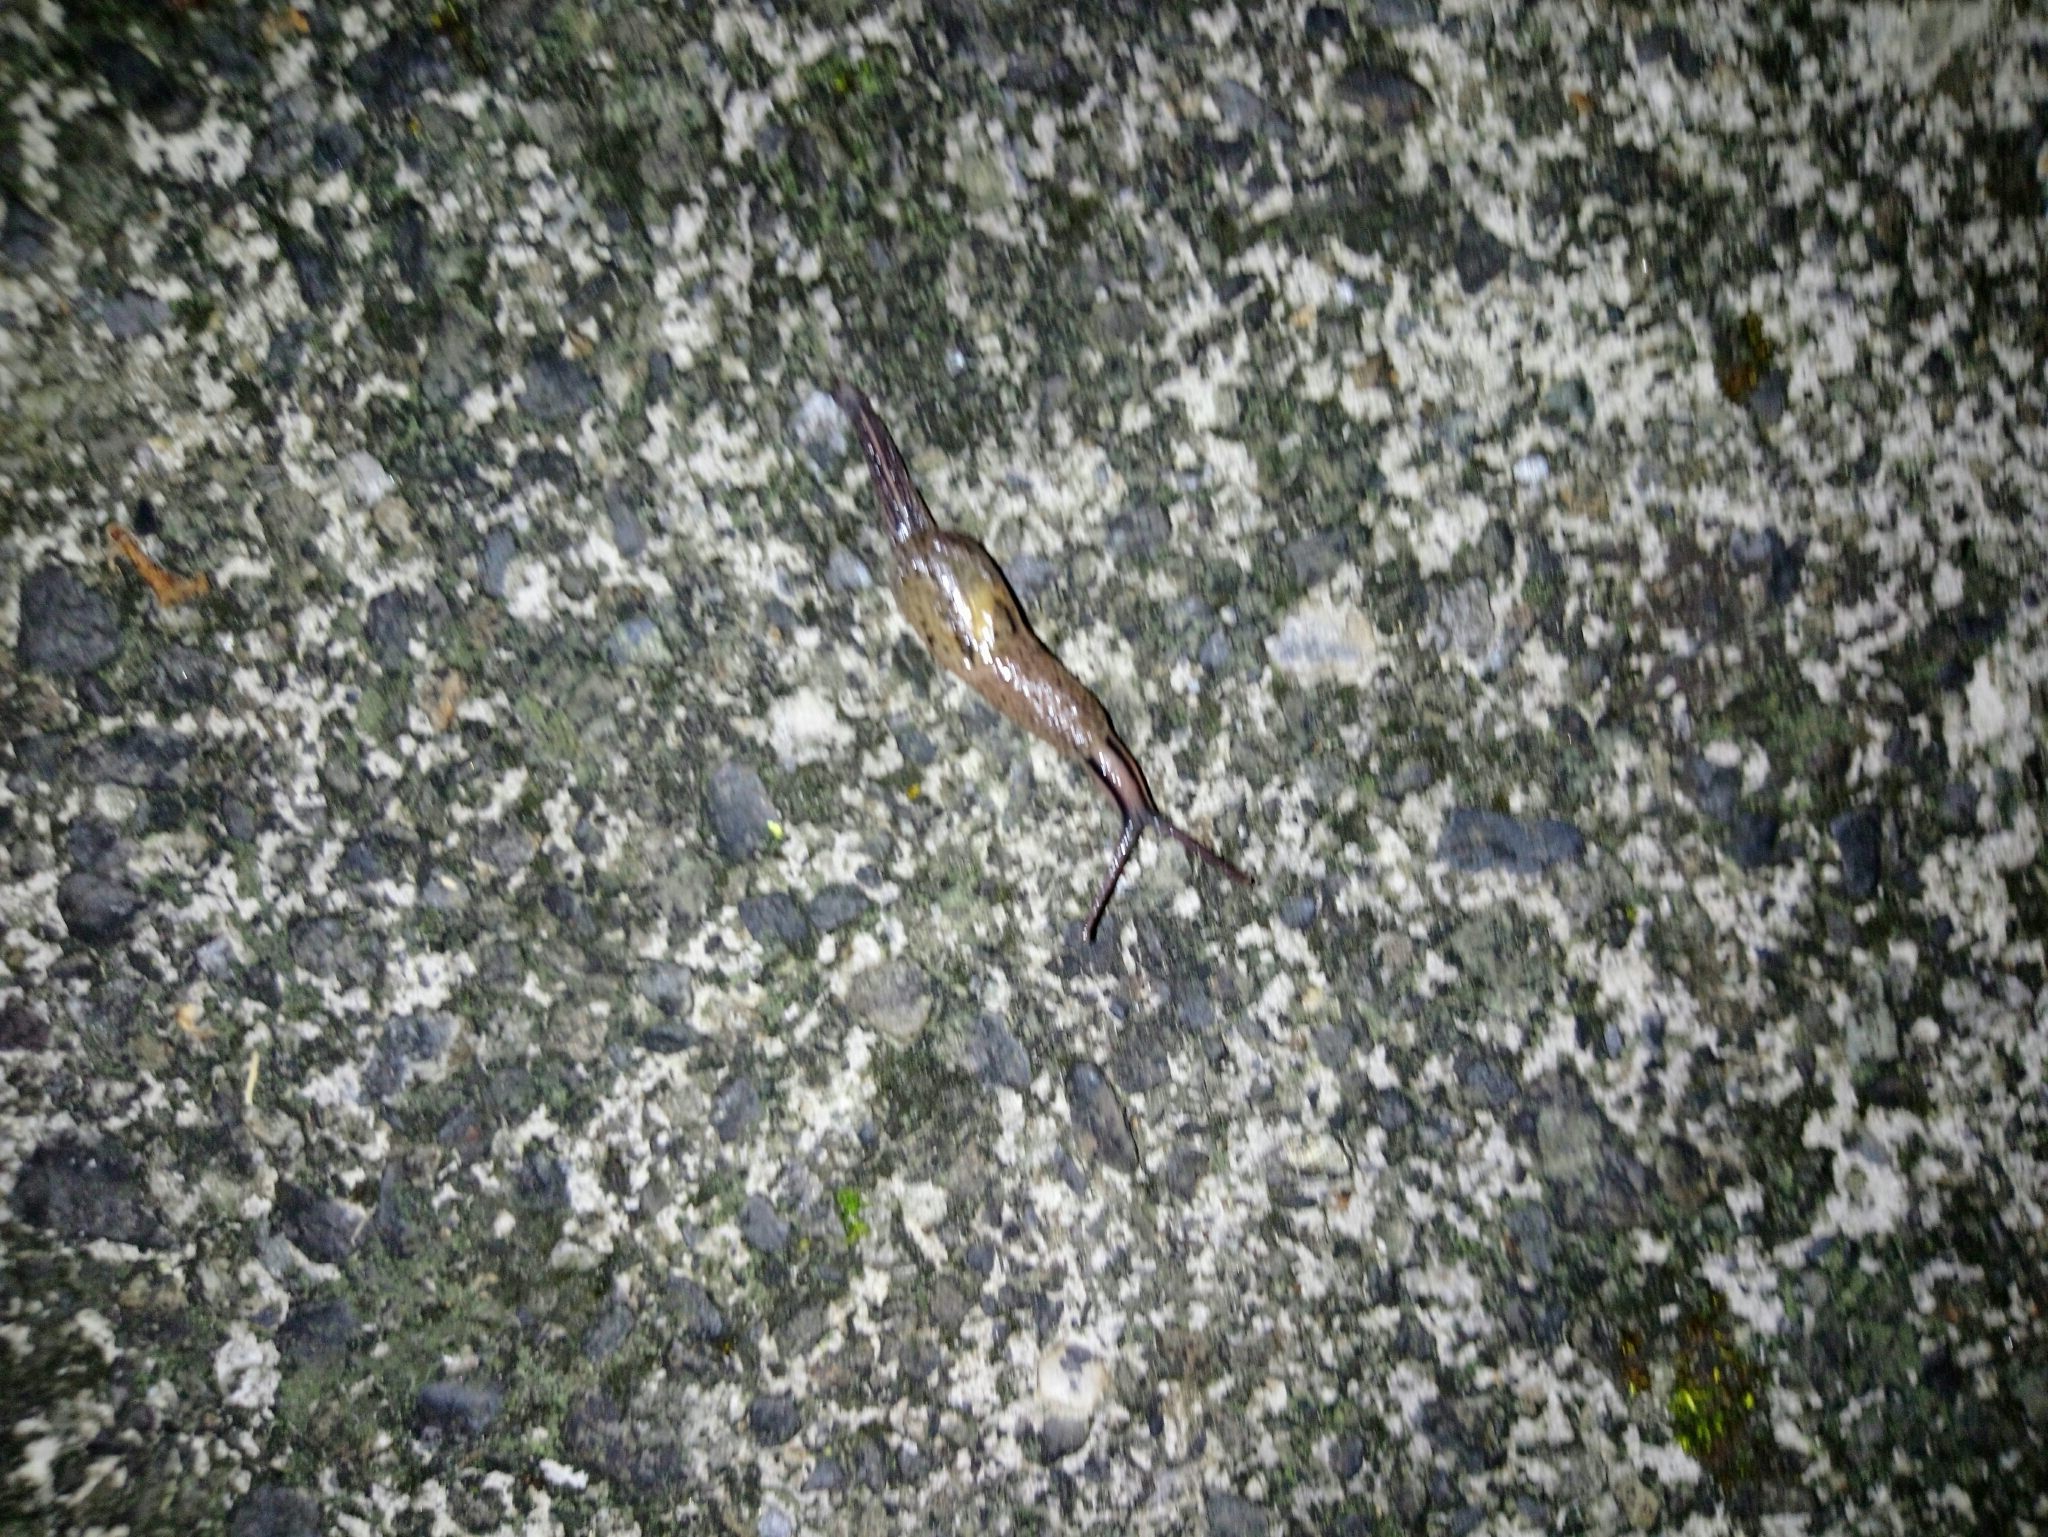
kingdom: Animalia
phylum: Mollusca
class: Gastropoda
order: Stylommatophora
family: Ariophantidae
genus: Parmarion
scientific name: Parmarion martensi
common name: Semi-slug
